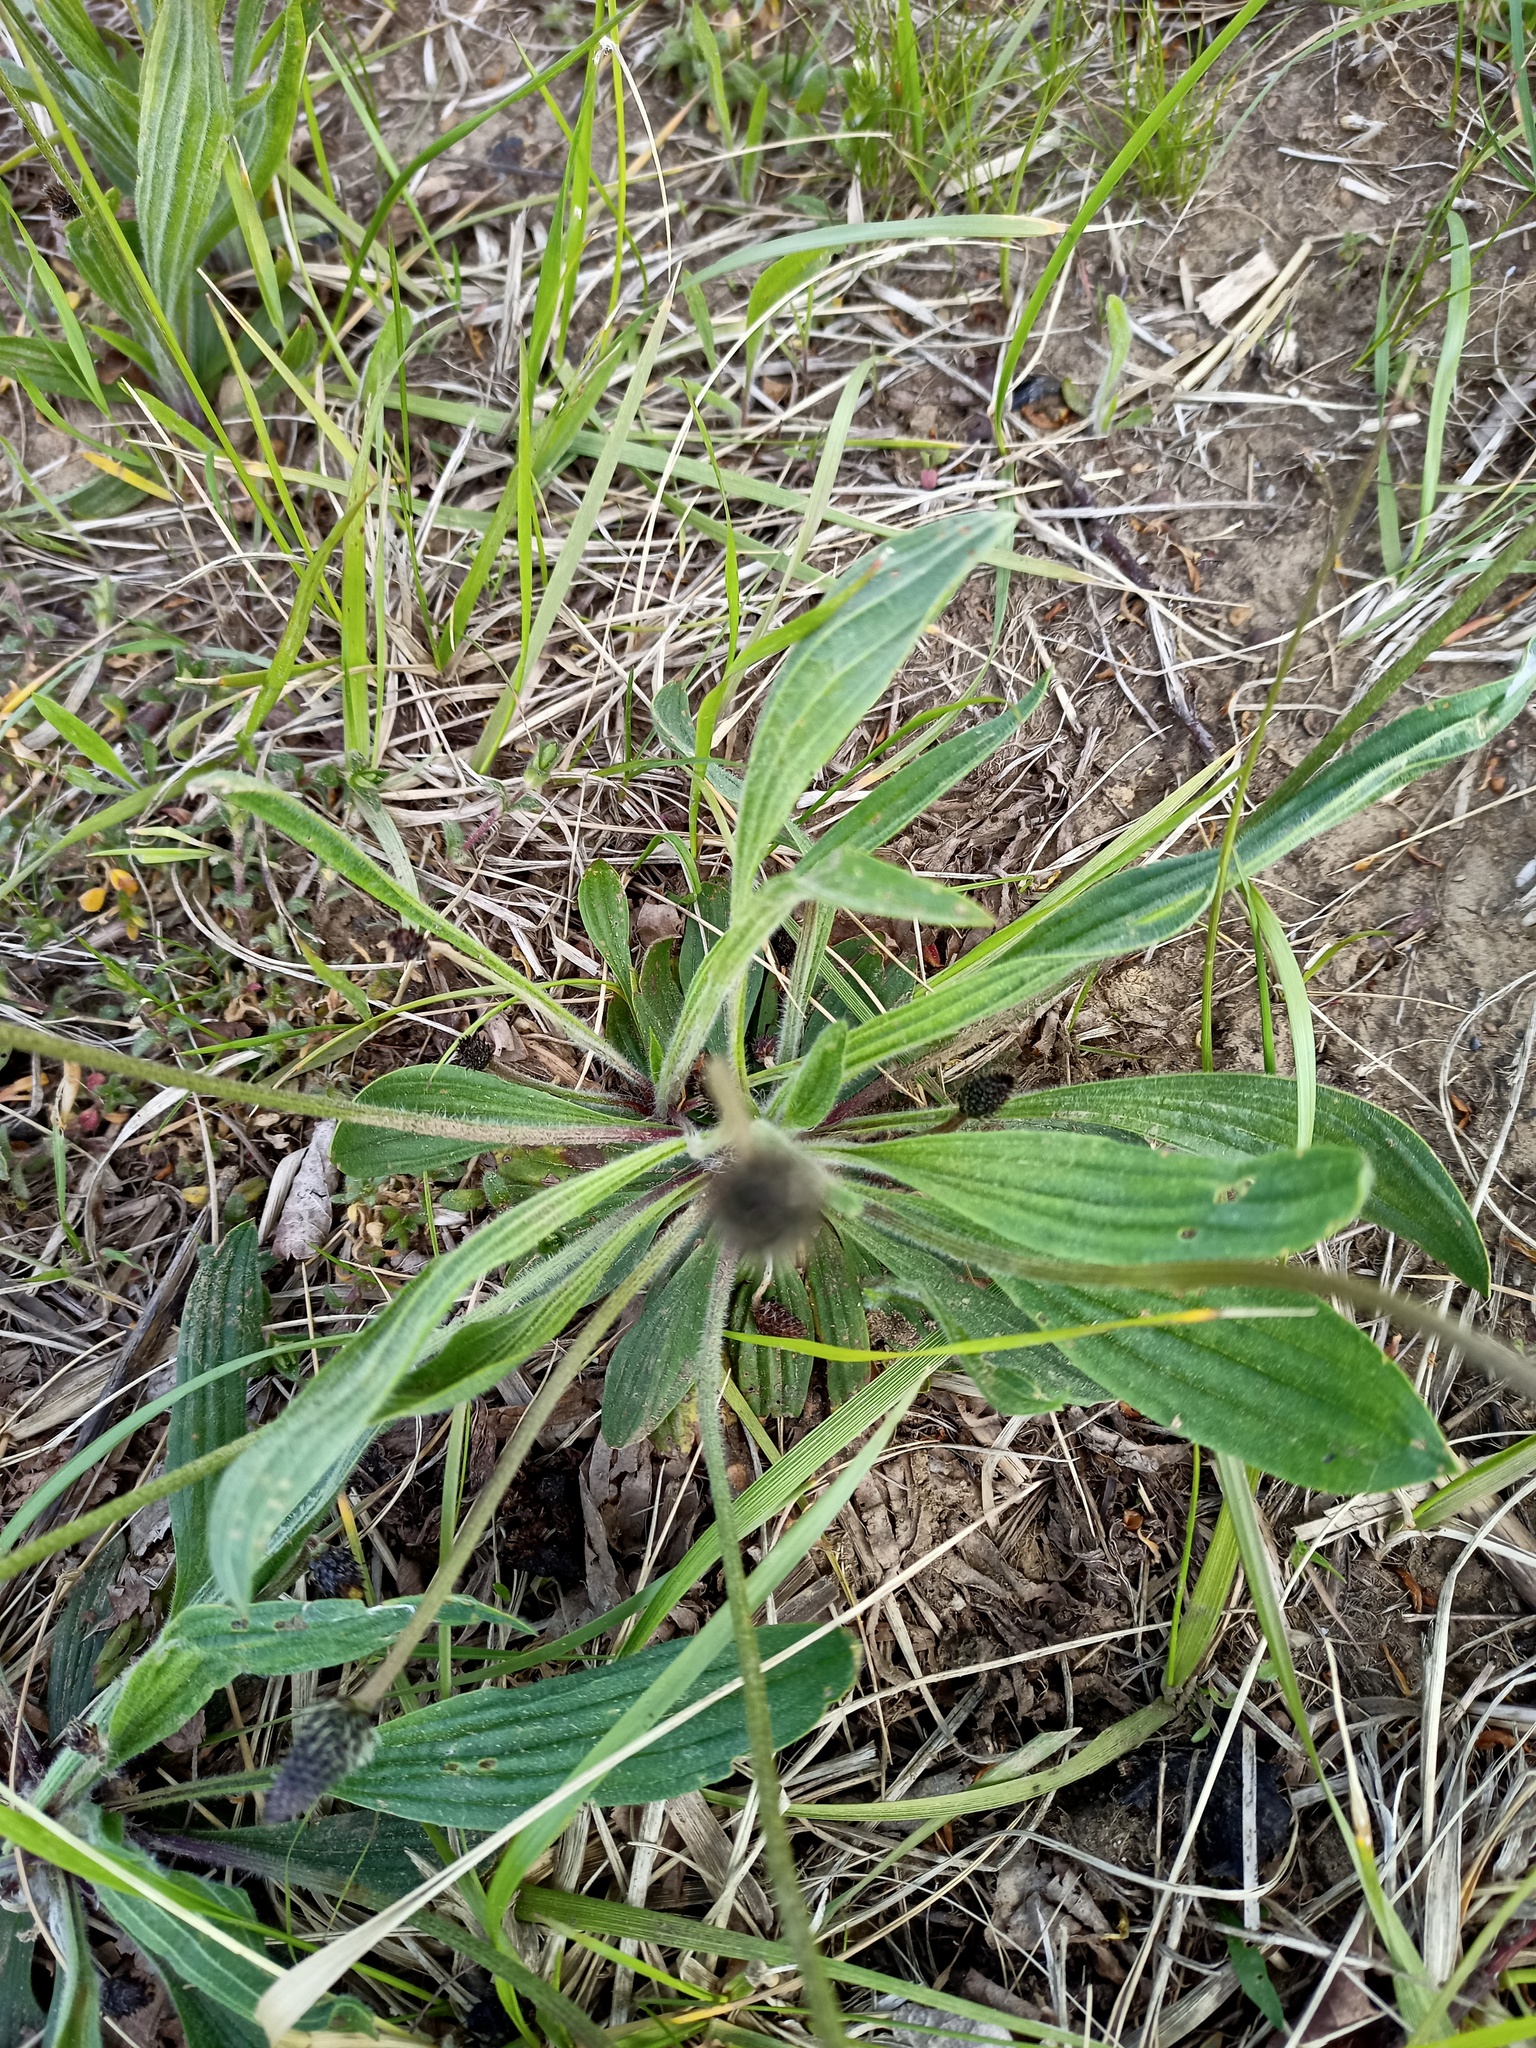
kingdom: Plantae
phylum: Tracheophyta
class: Magnoliopsida
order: Lamiales
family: Plantaginaceae
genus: Plantago
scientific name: Plantago lanceolata
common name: Ribwort plantain
